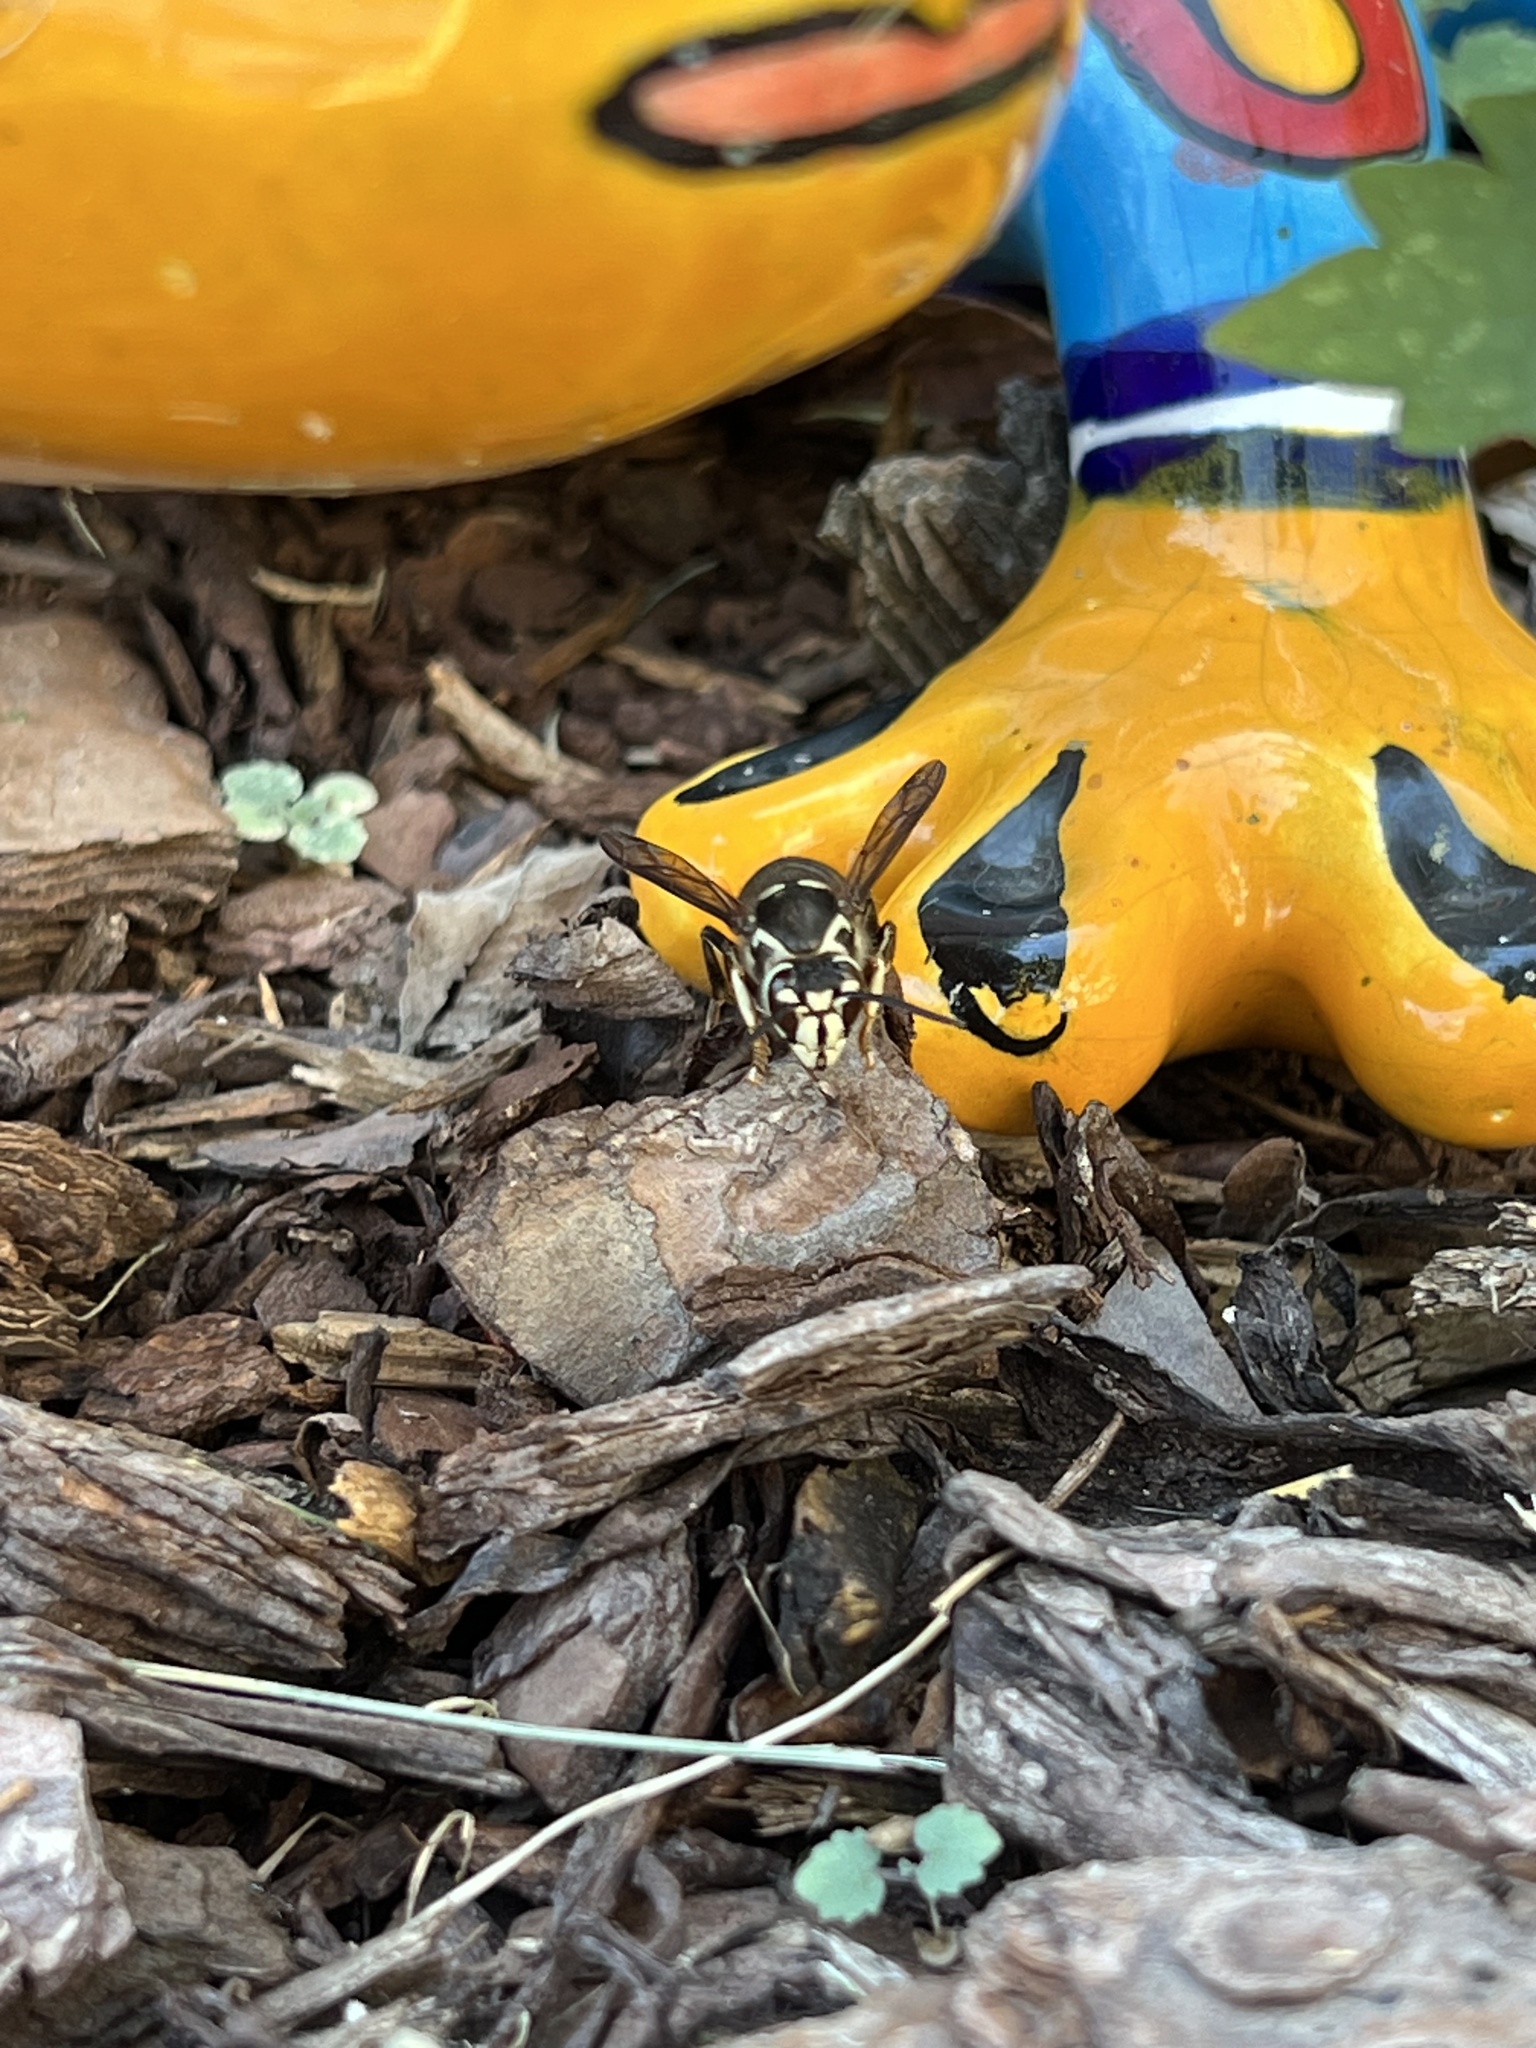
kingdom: Animalia
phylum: Arthropoda
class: Insecta
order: Hymenoptera
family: Vespidae
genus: Dolichovespula
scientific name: Dolichovespula maculata
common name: Bald-faced hornet
